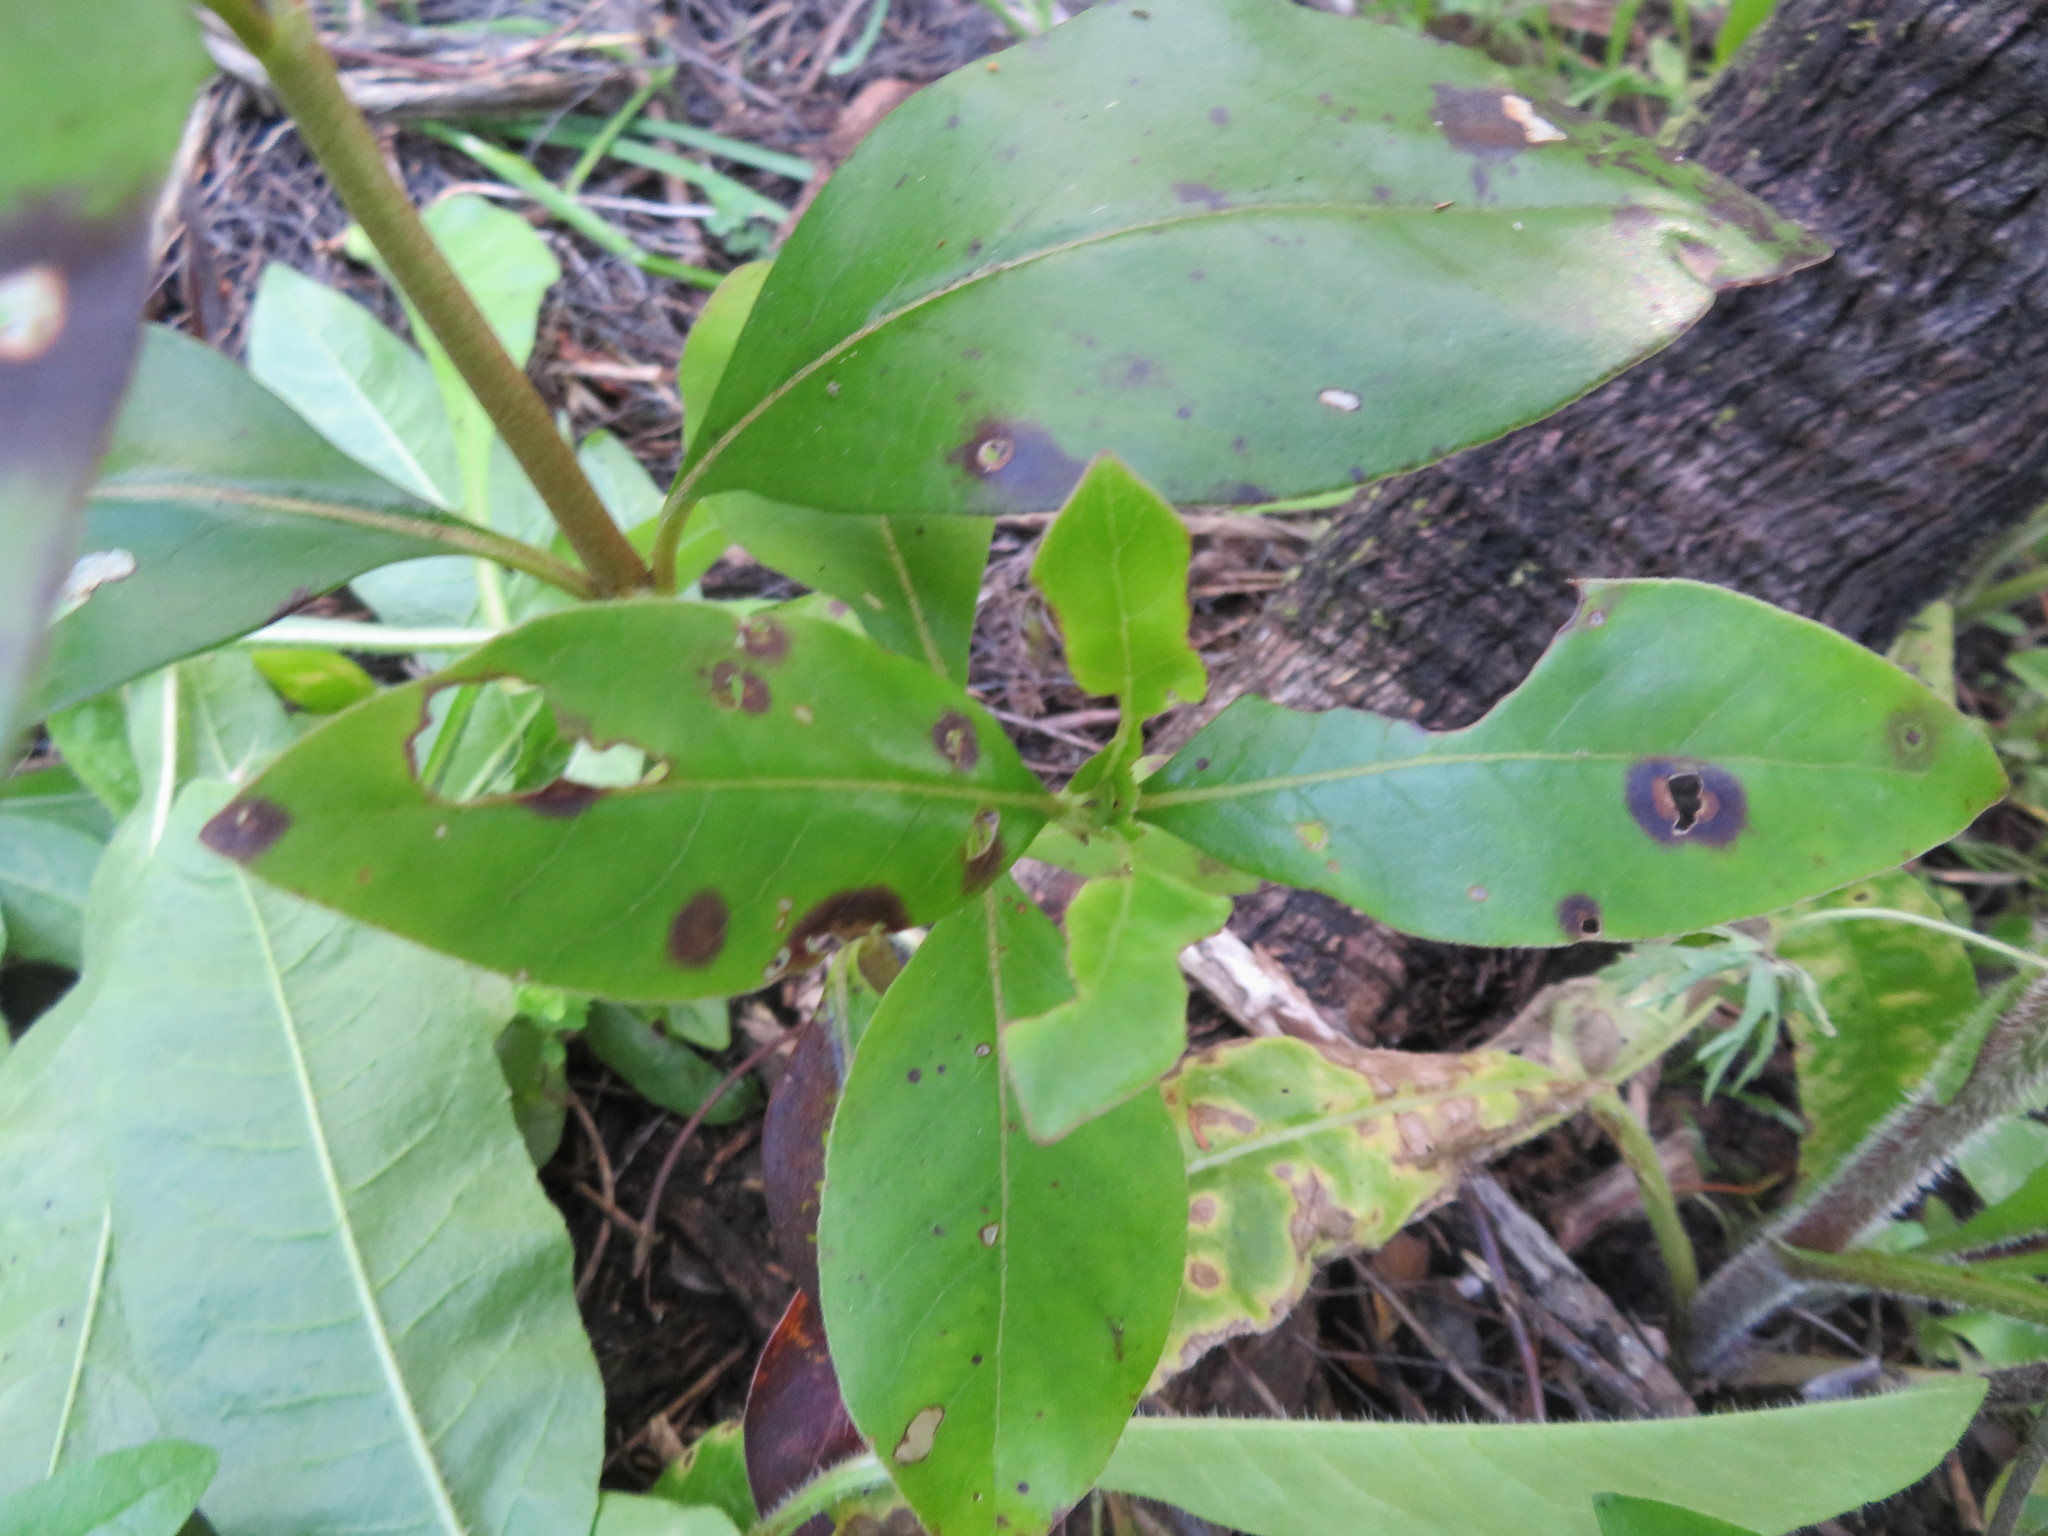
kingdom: Plantae
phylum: Tracheophyta
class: Magnoliopsida
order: Gentianales
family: Rubiaceae
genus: Coprosma
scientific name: Coprosma robusta
